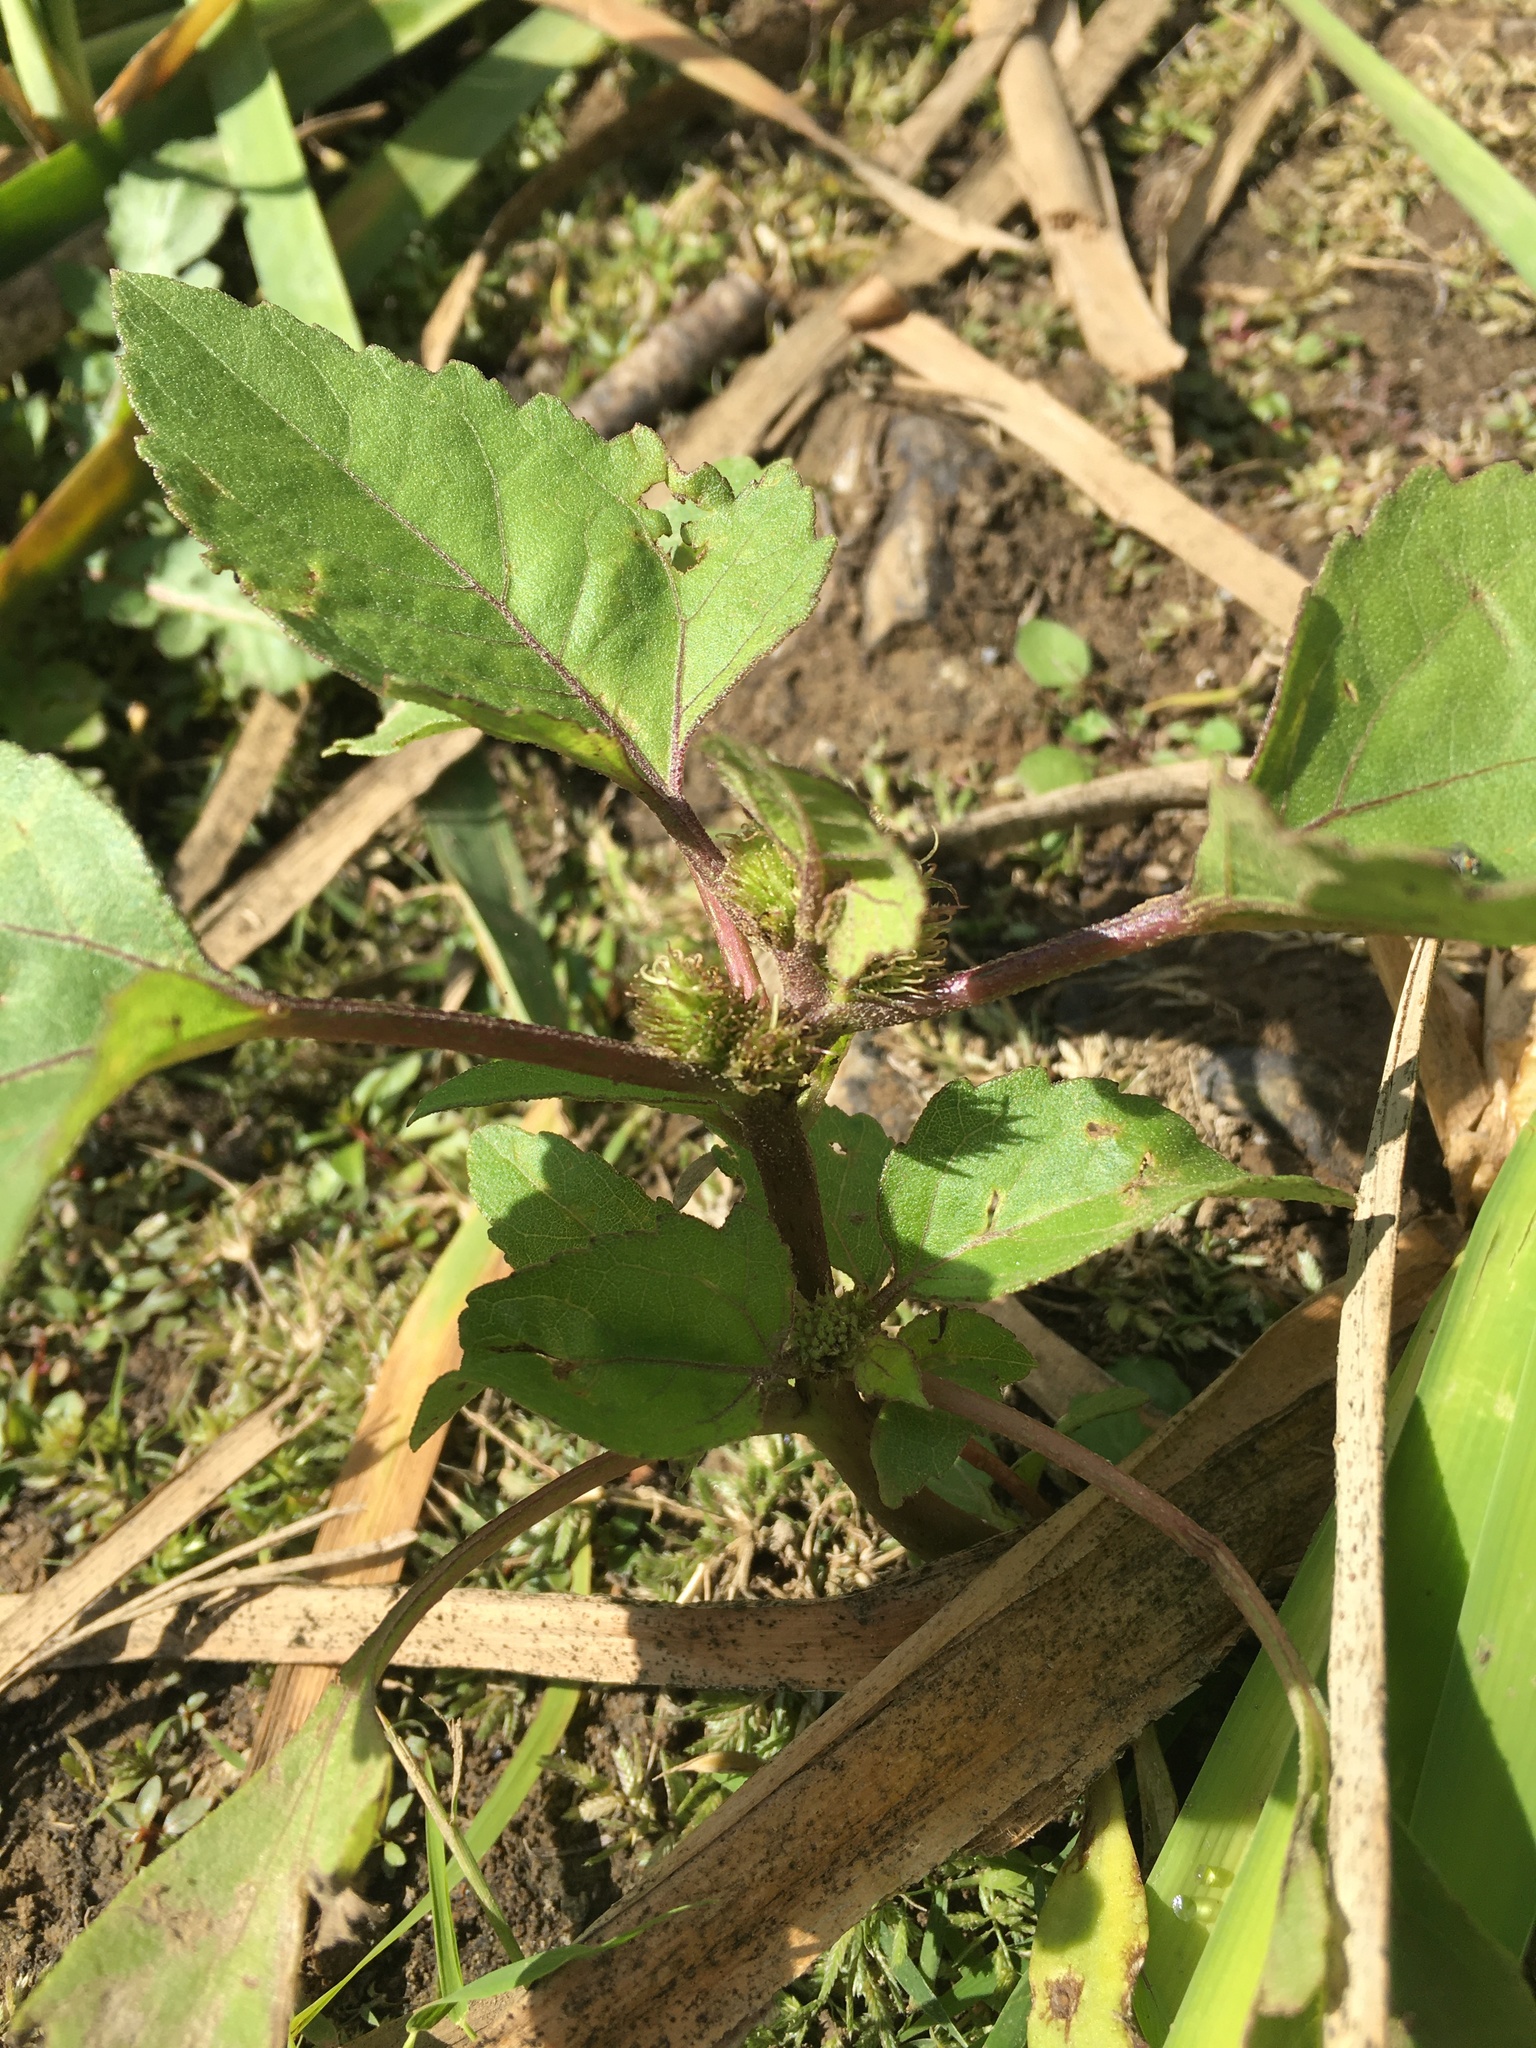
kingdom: Plantae
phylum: Tracheophyta
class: Magnoliopsida
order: Asterales
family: Asteraceae
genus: Xanthium
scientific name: Xanthium strumarium
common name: Rough cocklebur
